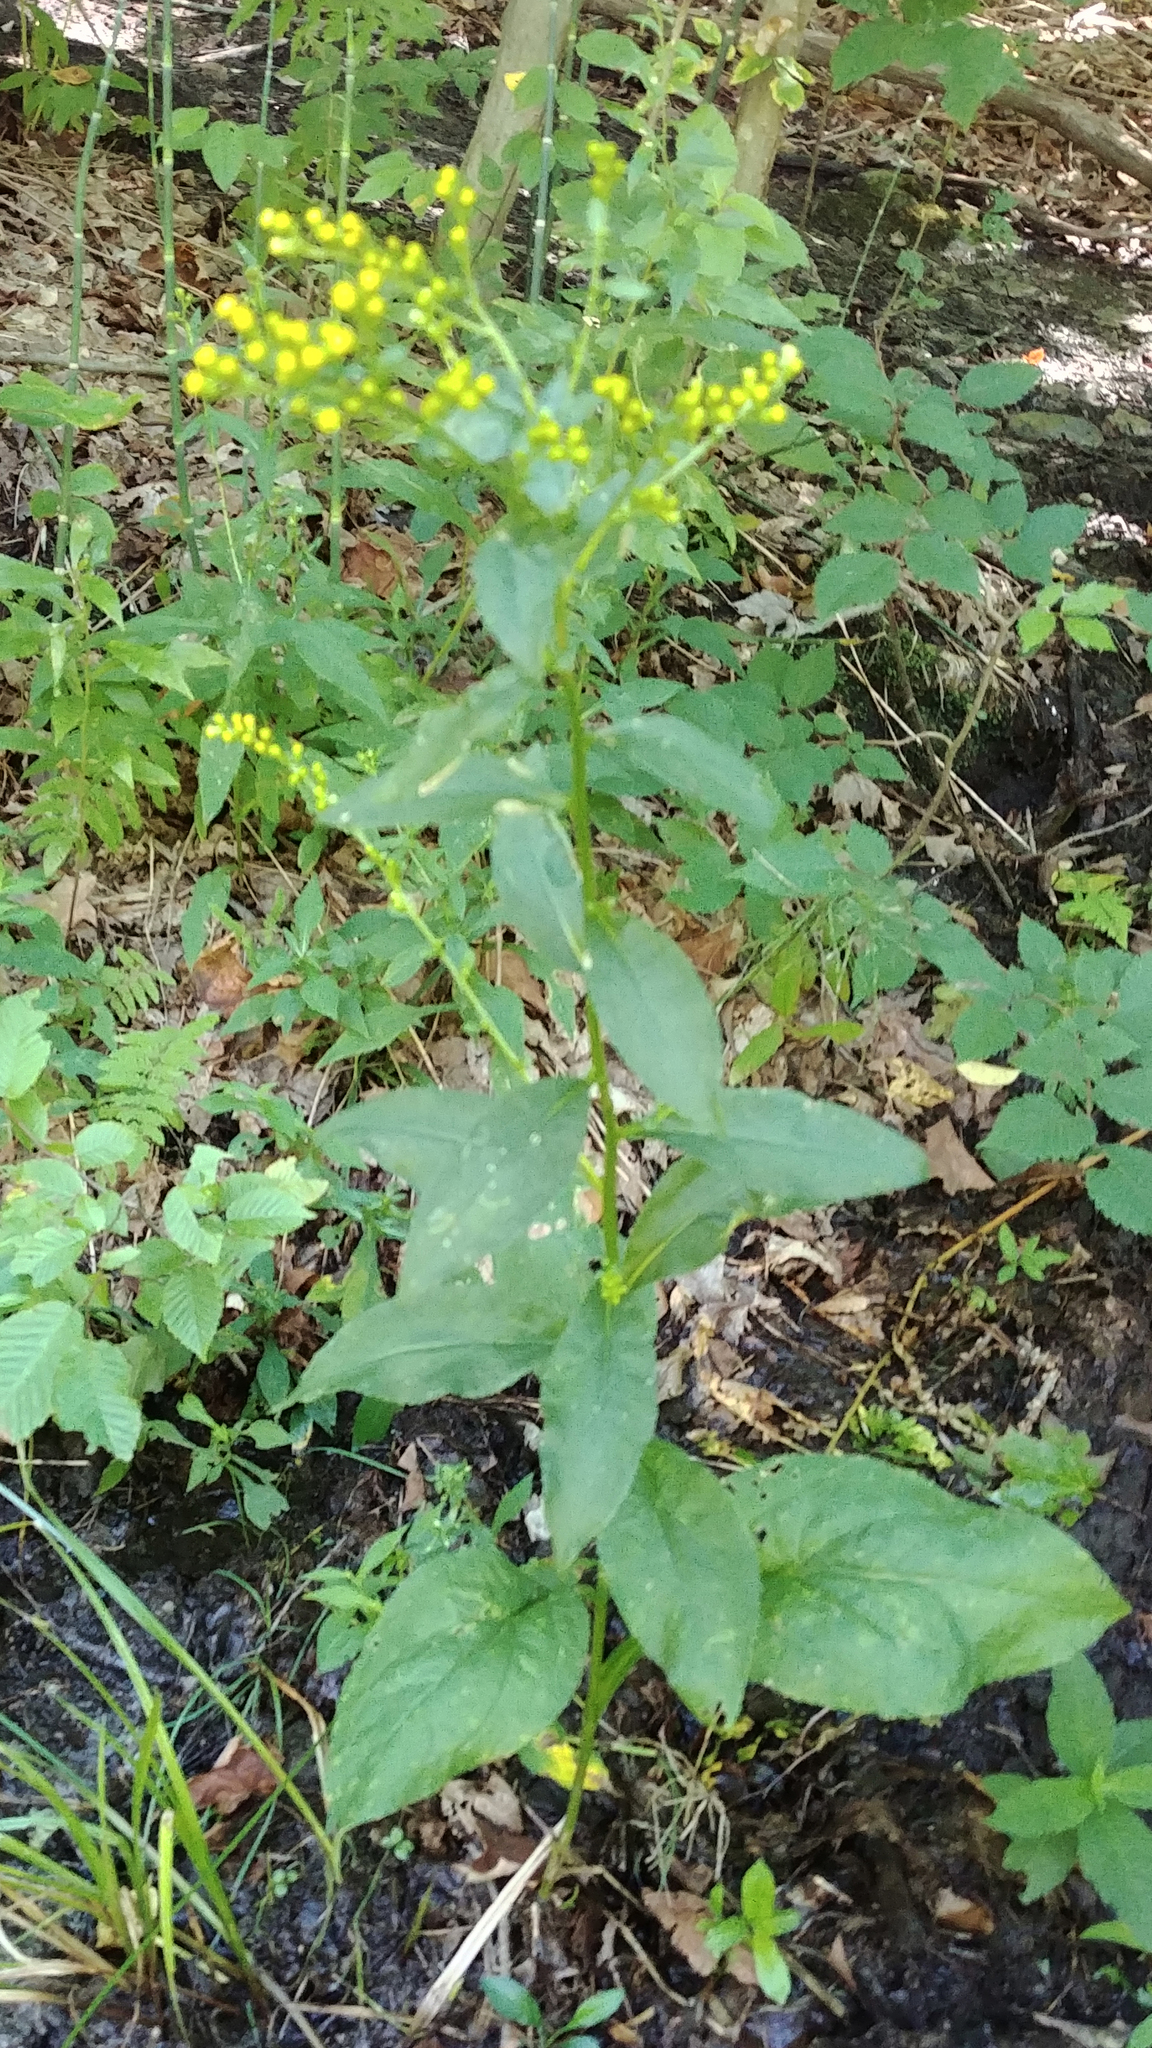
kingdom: Plantae
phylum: Tracheophyta
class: Magnoliopsida
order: Asterales
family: Asteraceae
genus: Solidago
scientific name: Solidago patula
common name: Rough-leaf goldenrod
